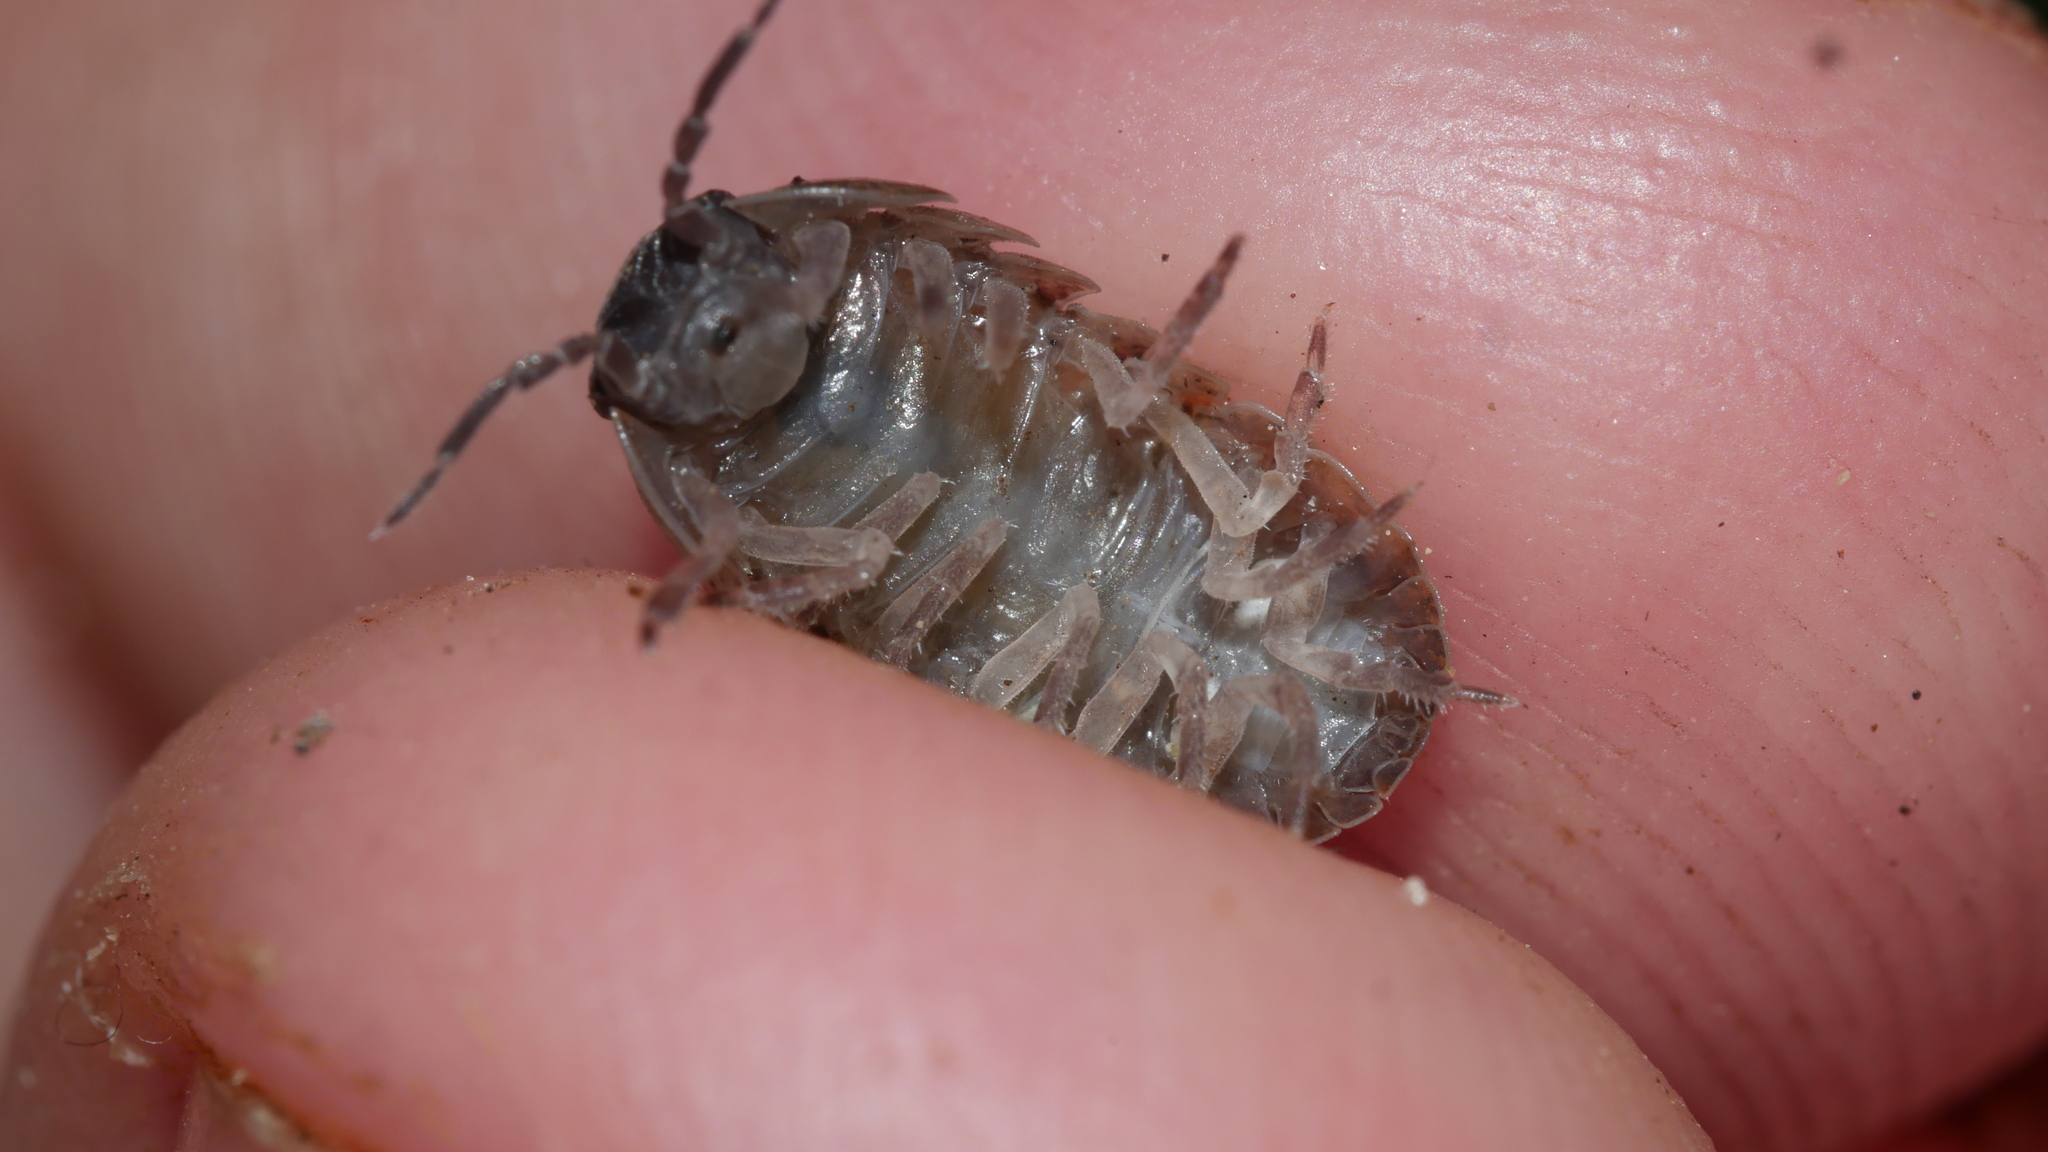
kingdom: Animalia
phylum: Arthropoda
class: Malacostraca
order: Isopoda
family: Armadillidiidae
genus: Armadillidium
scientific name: Armadillidium vulgare
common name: Common pill woodlouse
